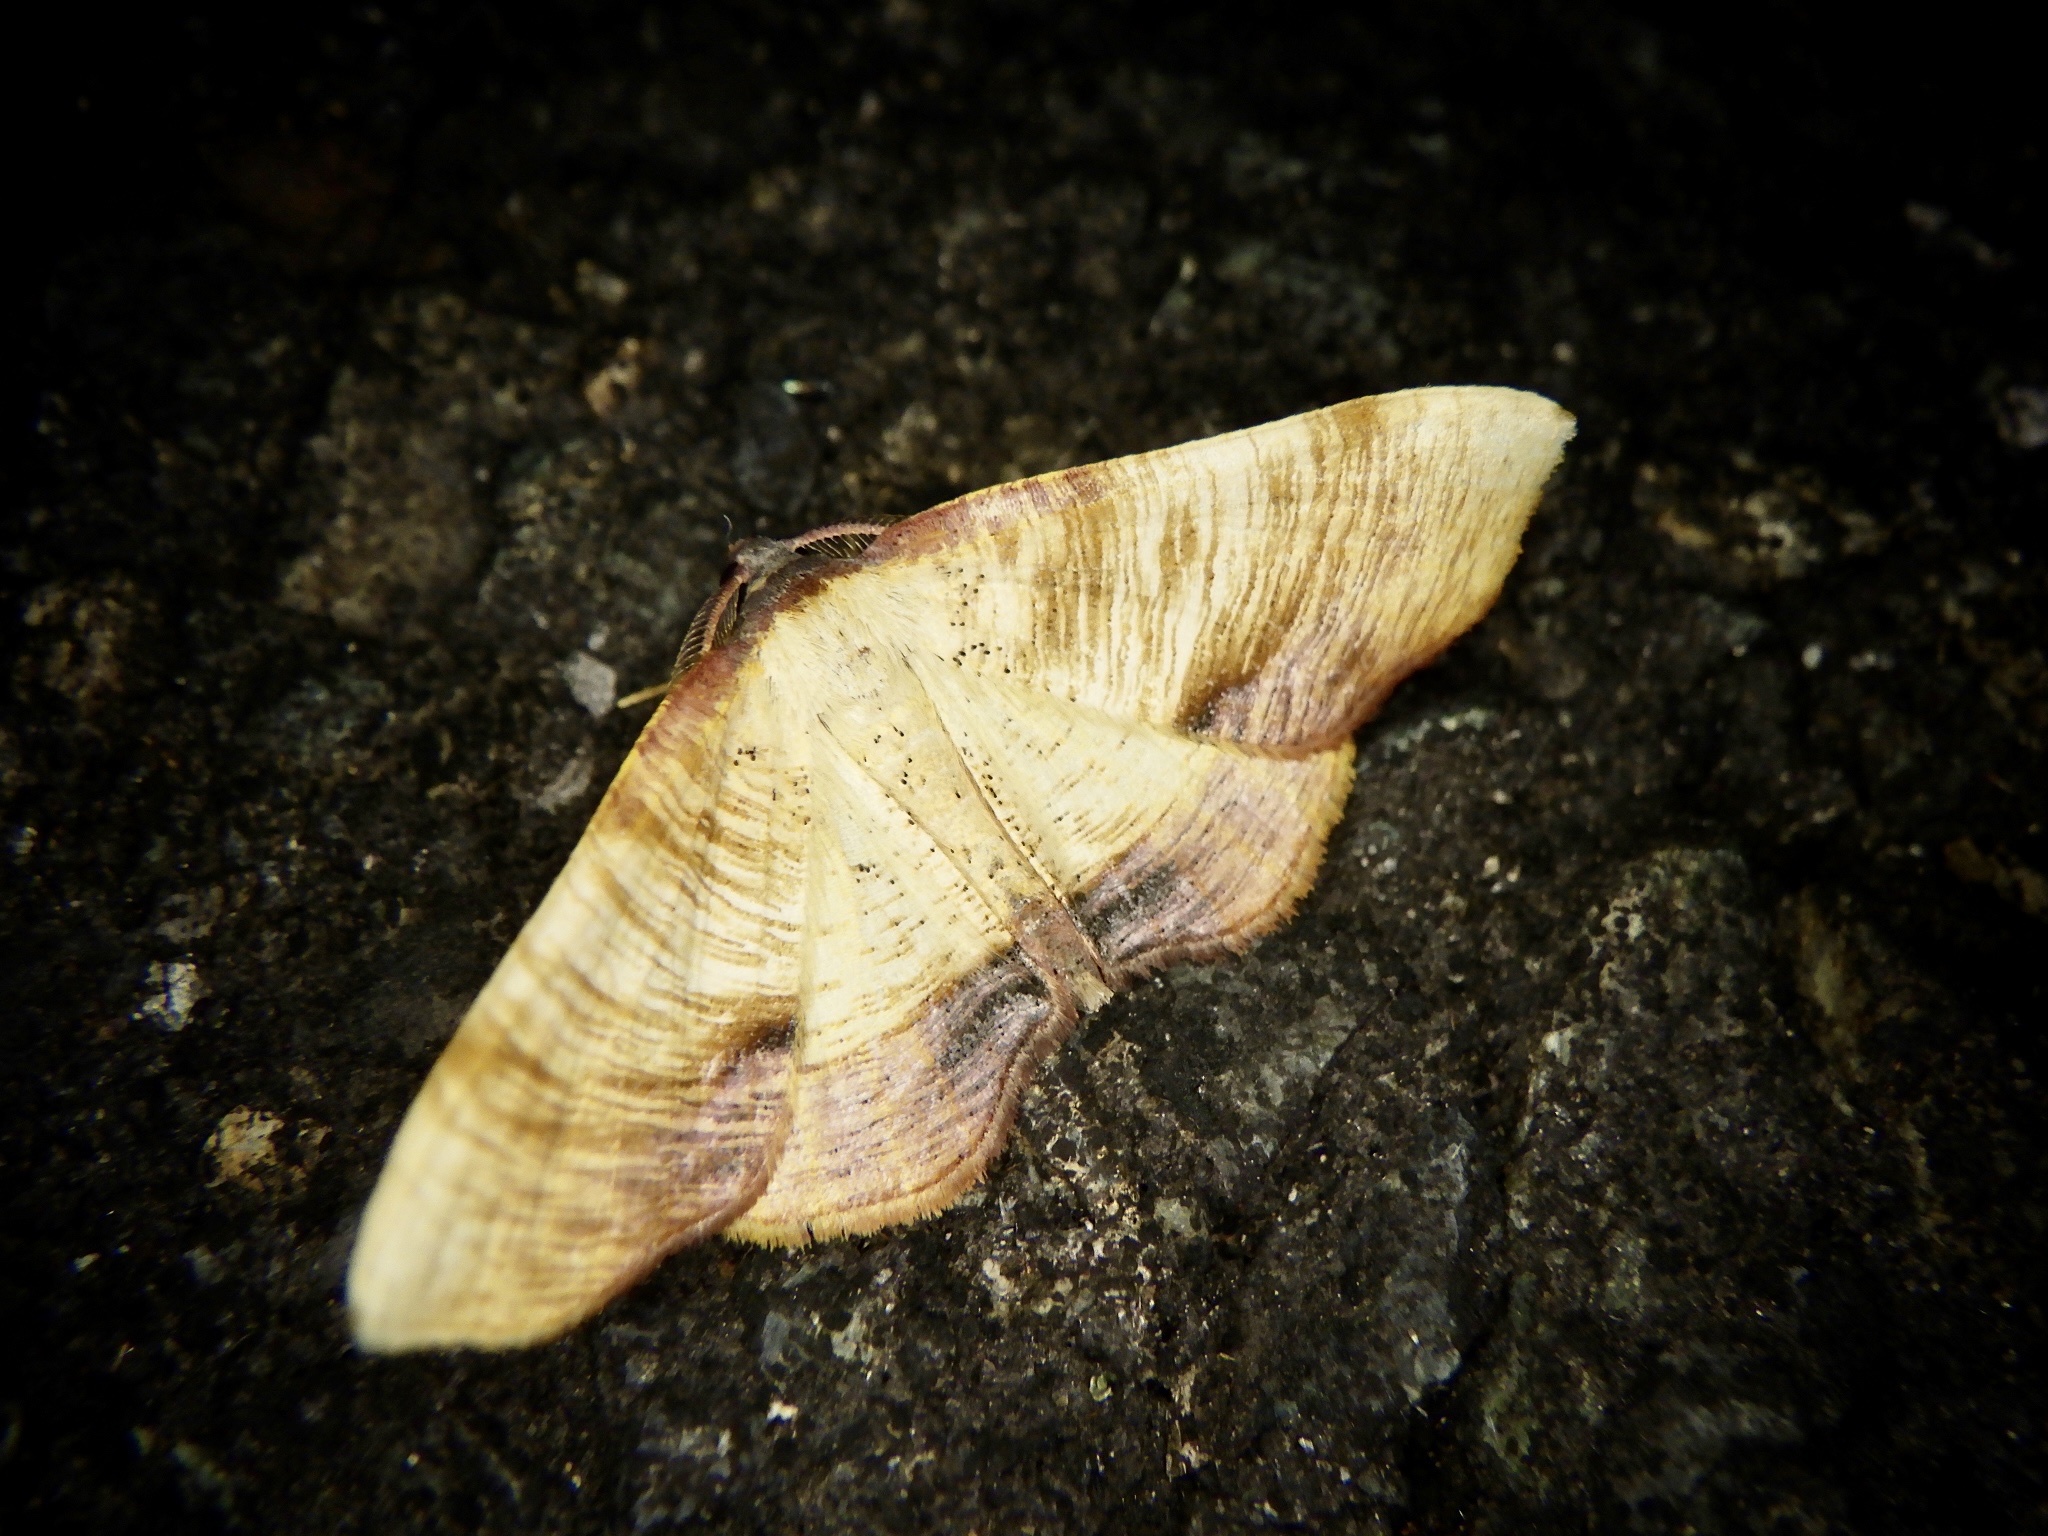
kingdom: Animalia
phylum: Arthropoda
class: Insecta
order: Lepidoptera
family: Geometridae
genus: Plagodis
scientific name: Plagodis dolabraria
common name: Scorched wing
